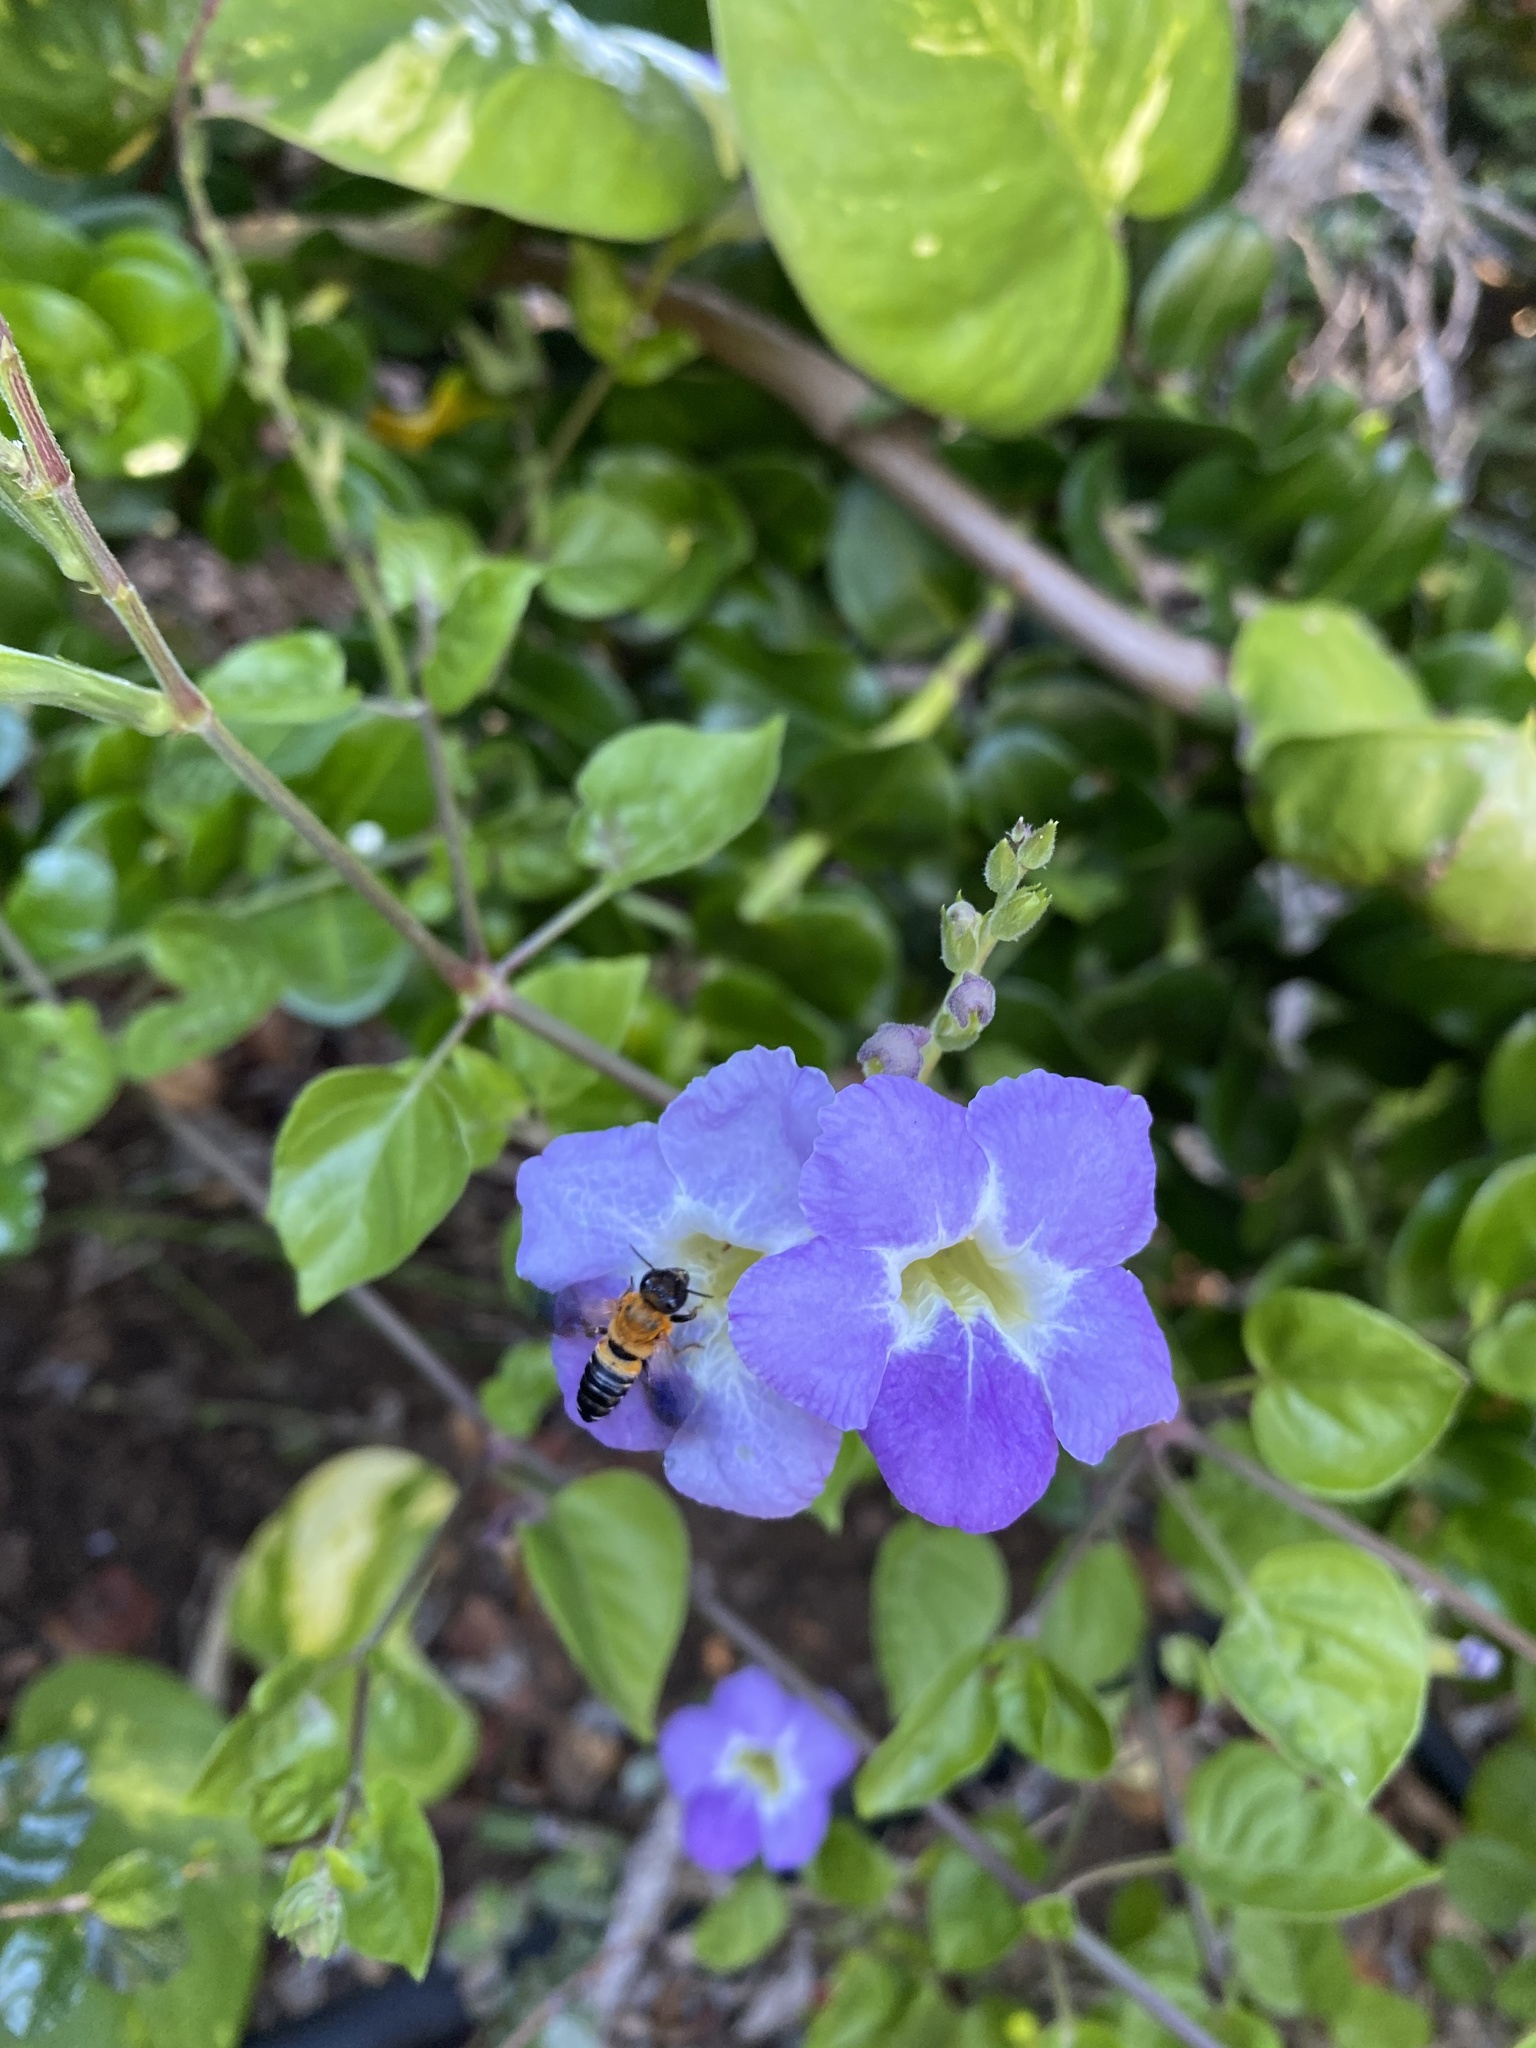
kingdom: Animalia
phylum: Arthropoda
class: Insecta
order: Hymenoptera
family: Megachilidae
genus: Megachile
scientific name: Megachile umbripennis
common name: Shadow-winged resin bee
